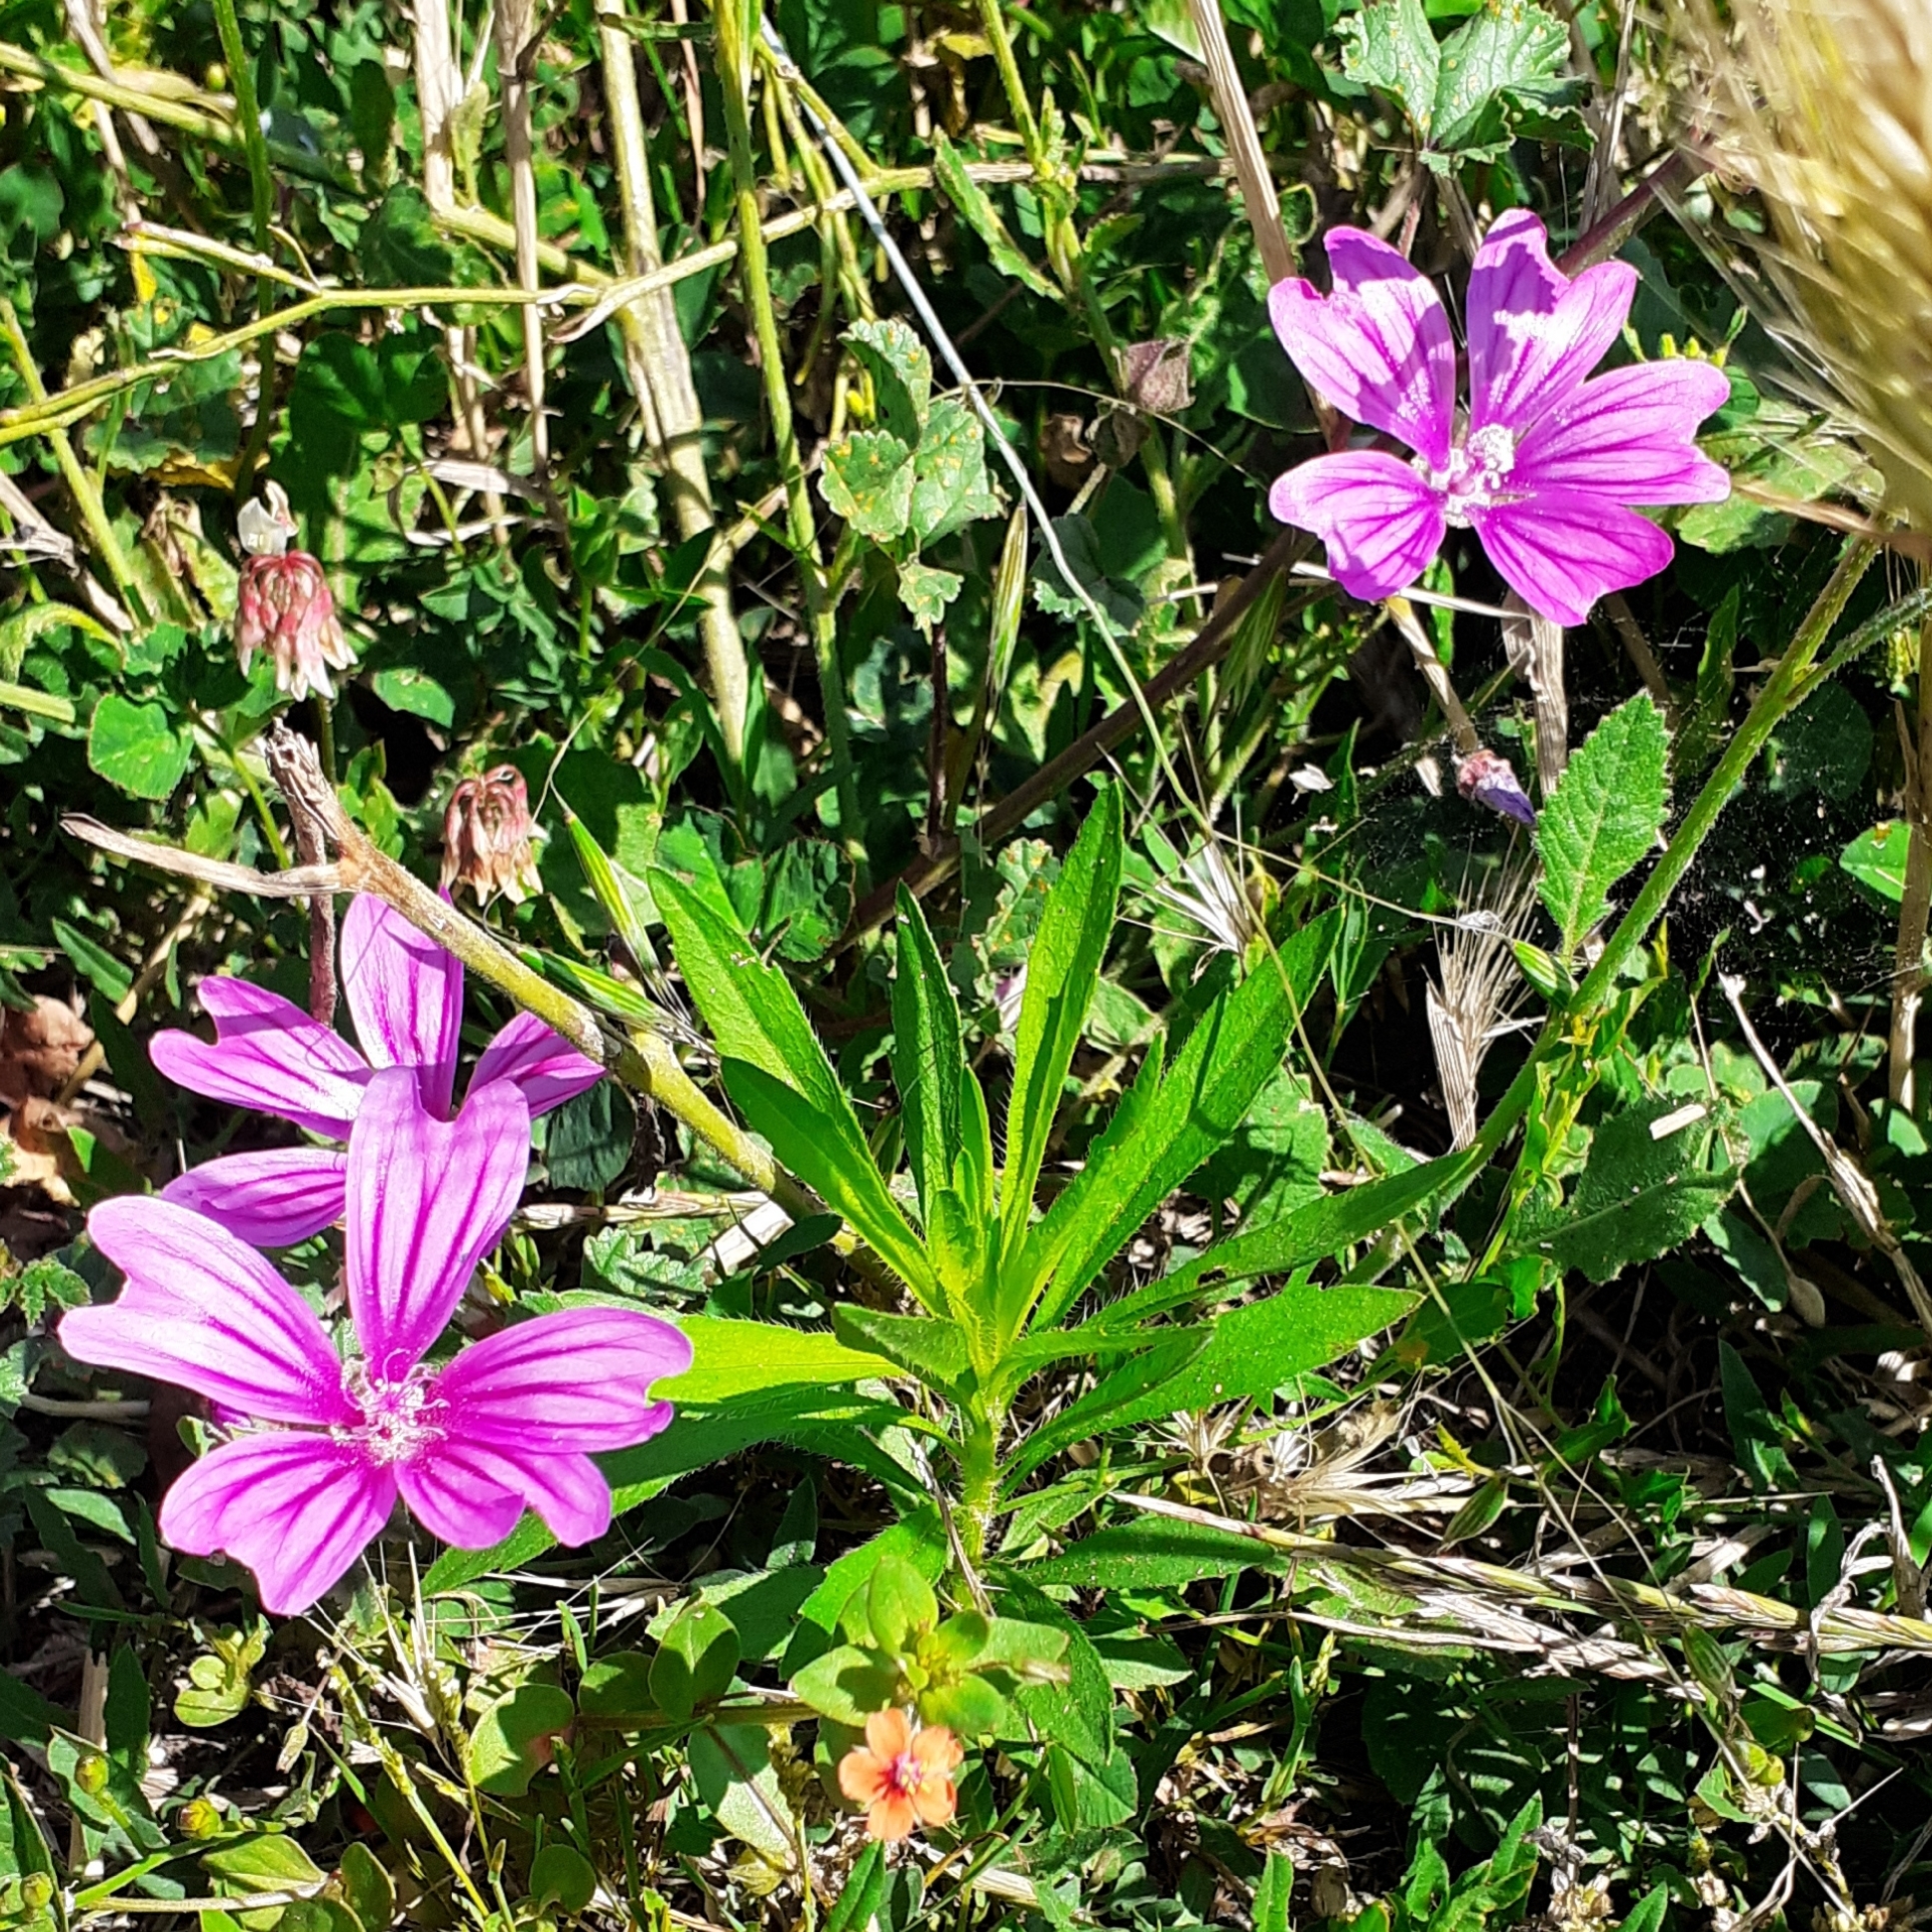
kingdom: Plantae
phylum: Tracheophyta
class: Magnoliopsida
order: Malvales
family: Malvaceae
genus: Malva
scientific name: Malva sylvestris
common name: Common mallow
